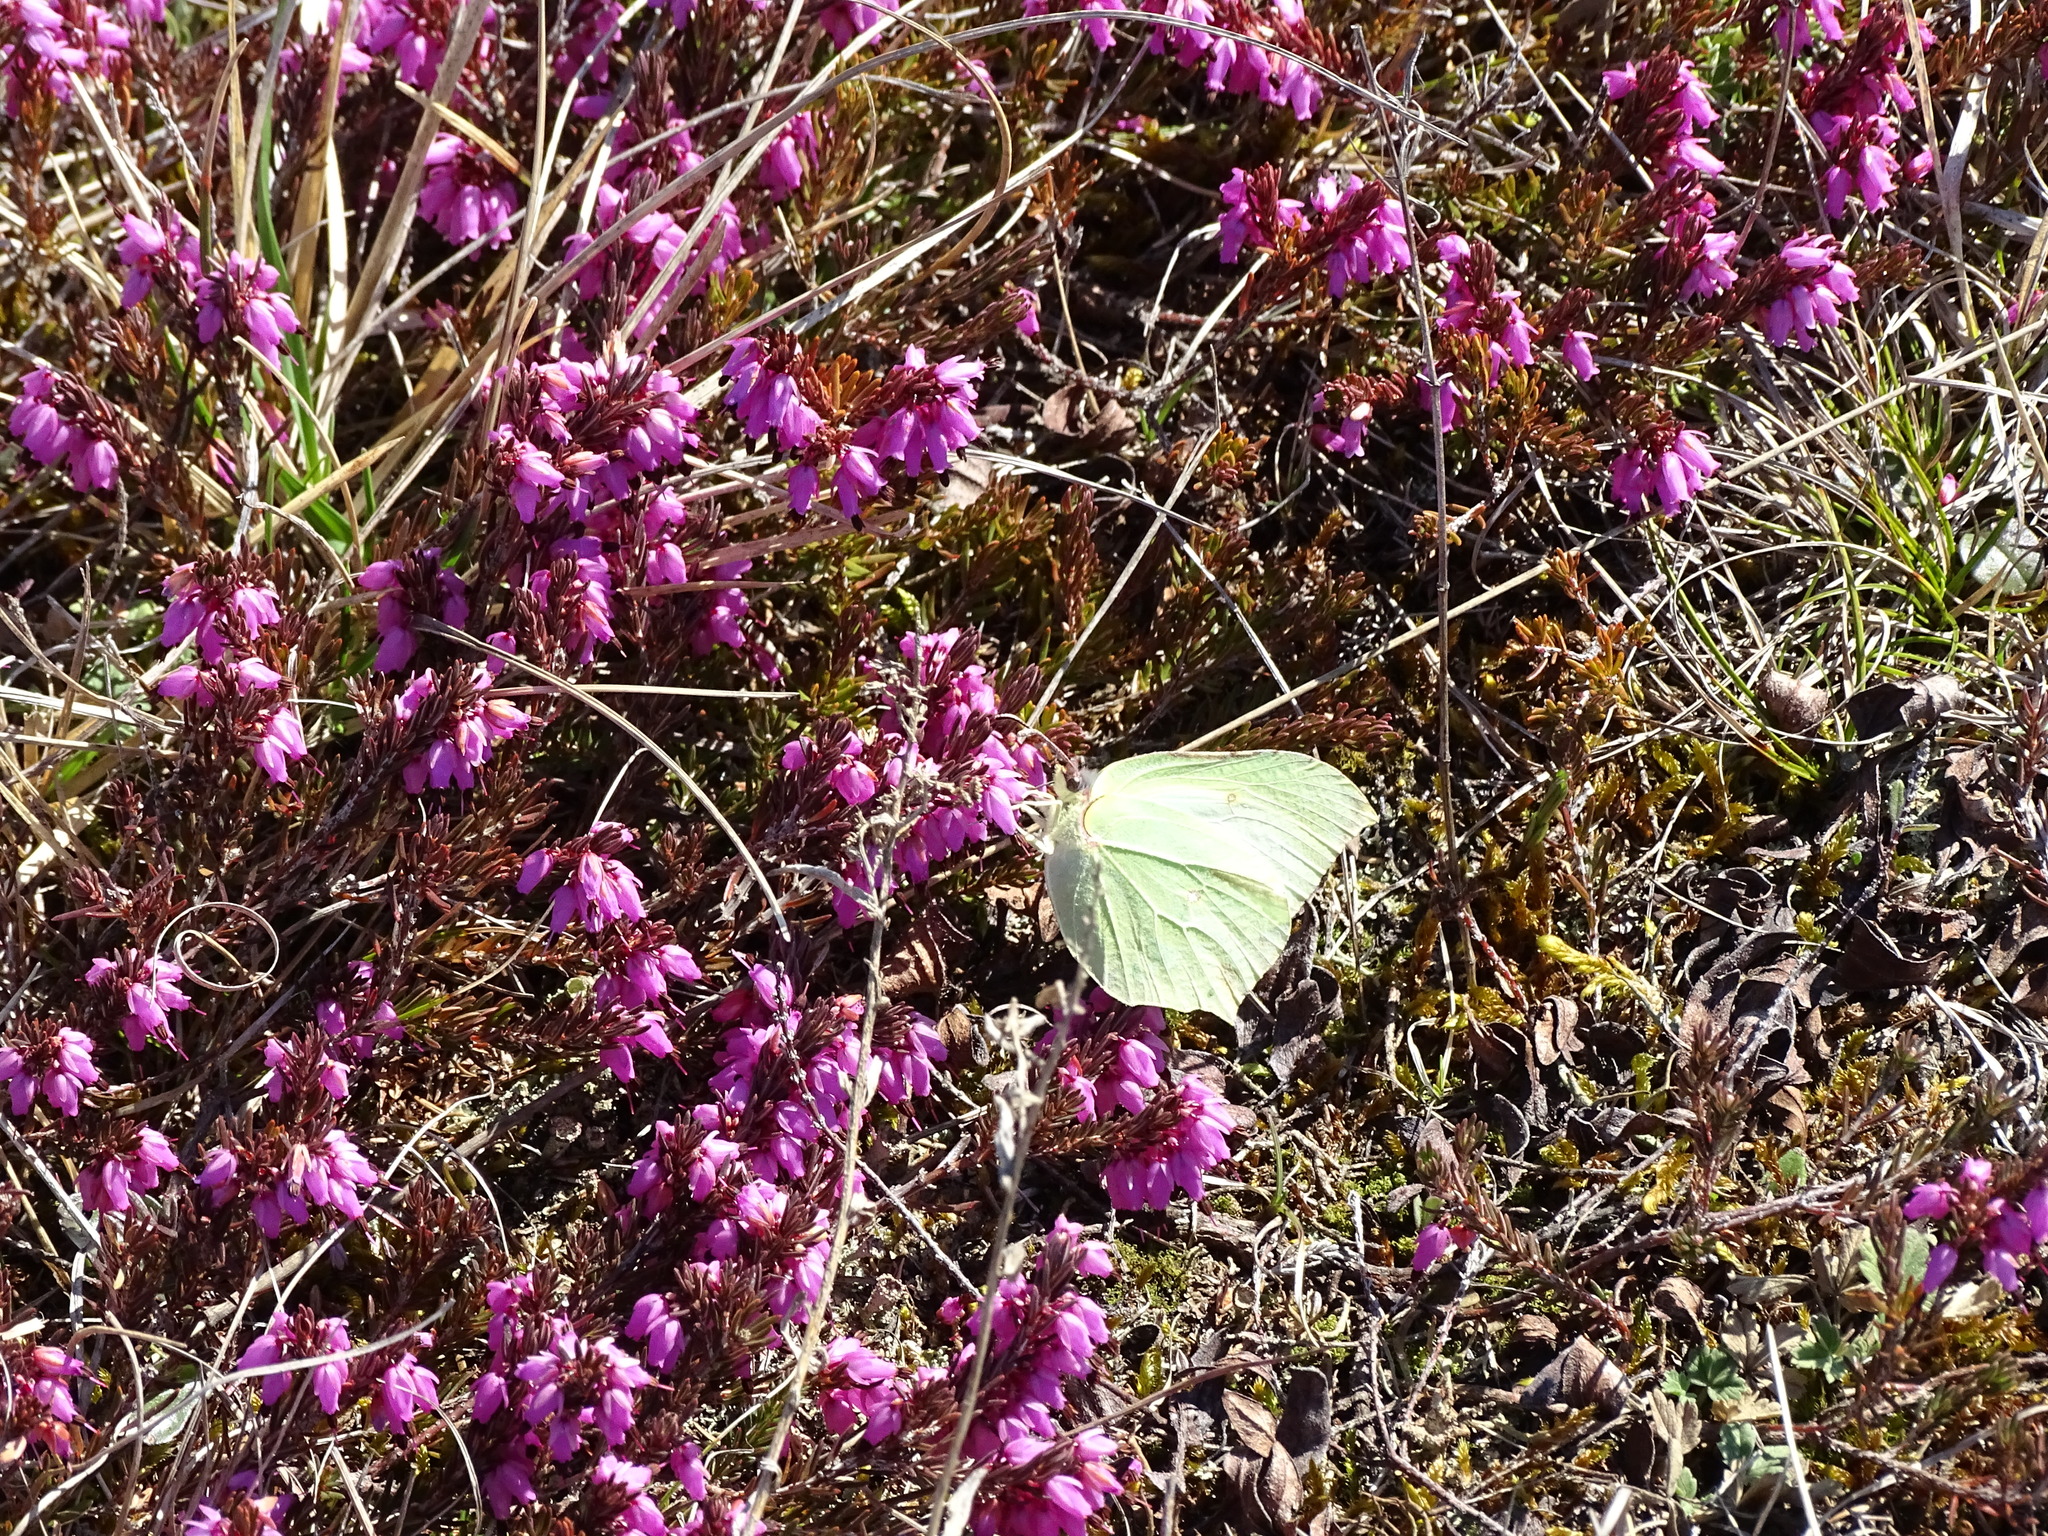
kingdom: Animalia
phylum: Arthropoda
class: Insecta
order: Lepidoptera
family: Pieridae
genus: Gonepteryx
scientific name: Gonepteryx rhamni
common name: Brimstone
